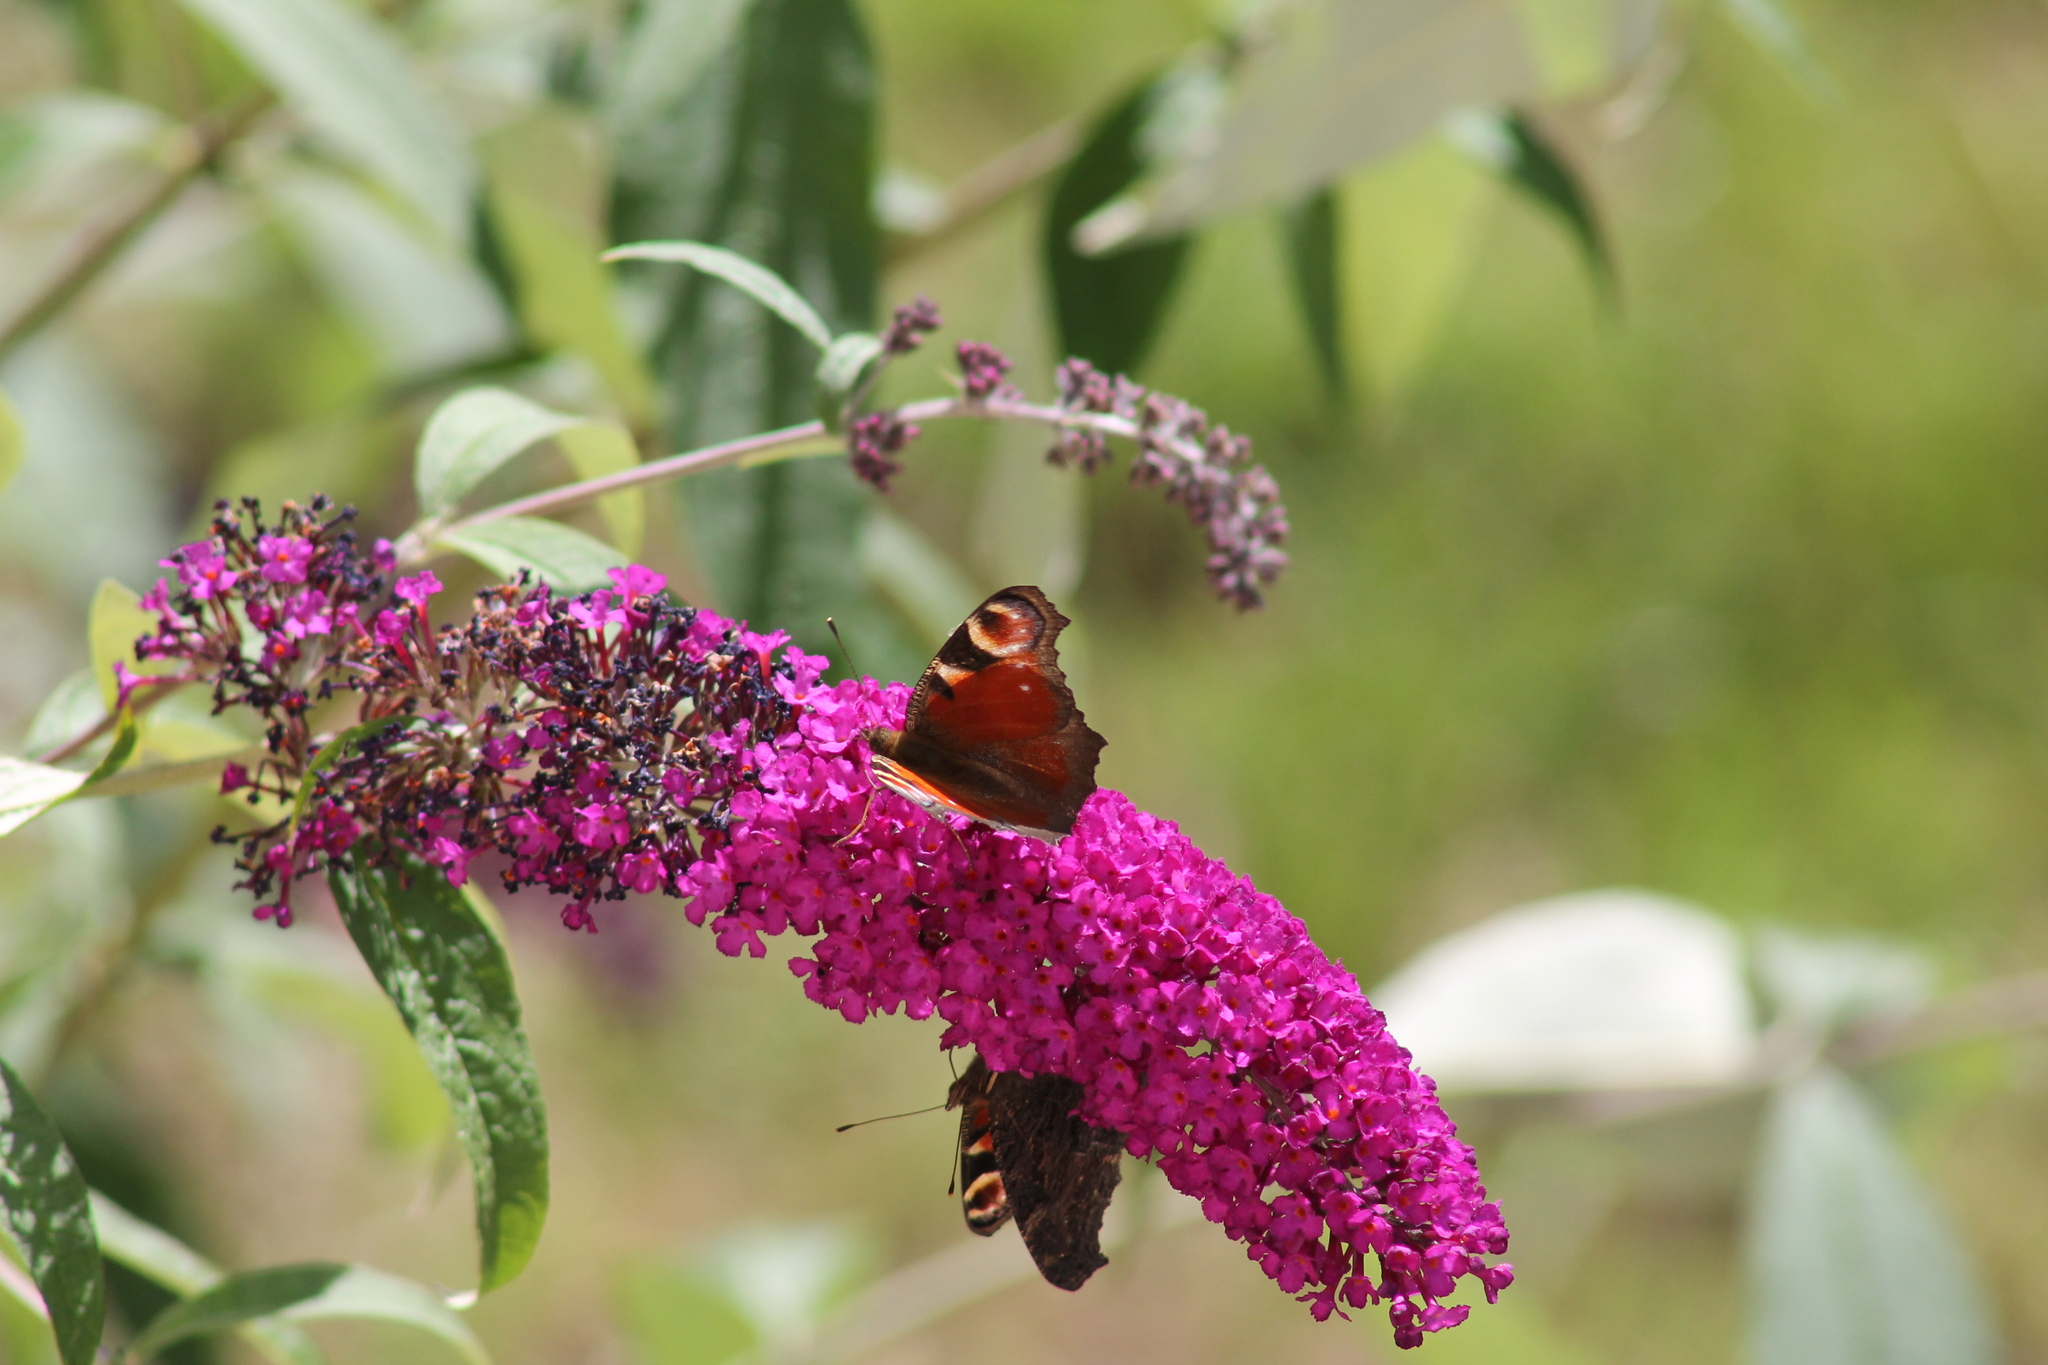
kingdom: Animalia
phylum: Arthropoda
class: Insecta
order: Lepidoptera
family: Nymphalidae
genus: Aglais
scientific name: Aglais io
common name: Peacock
